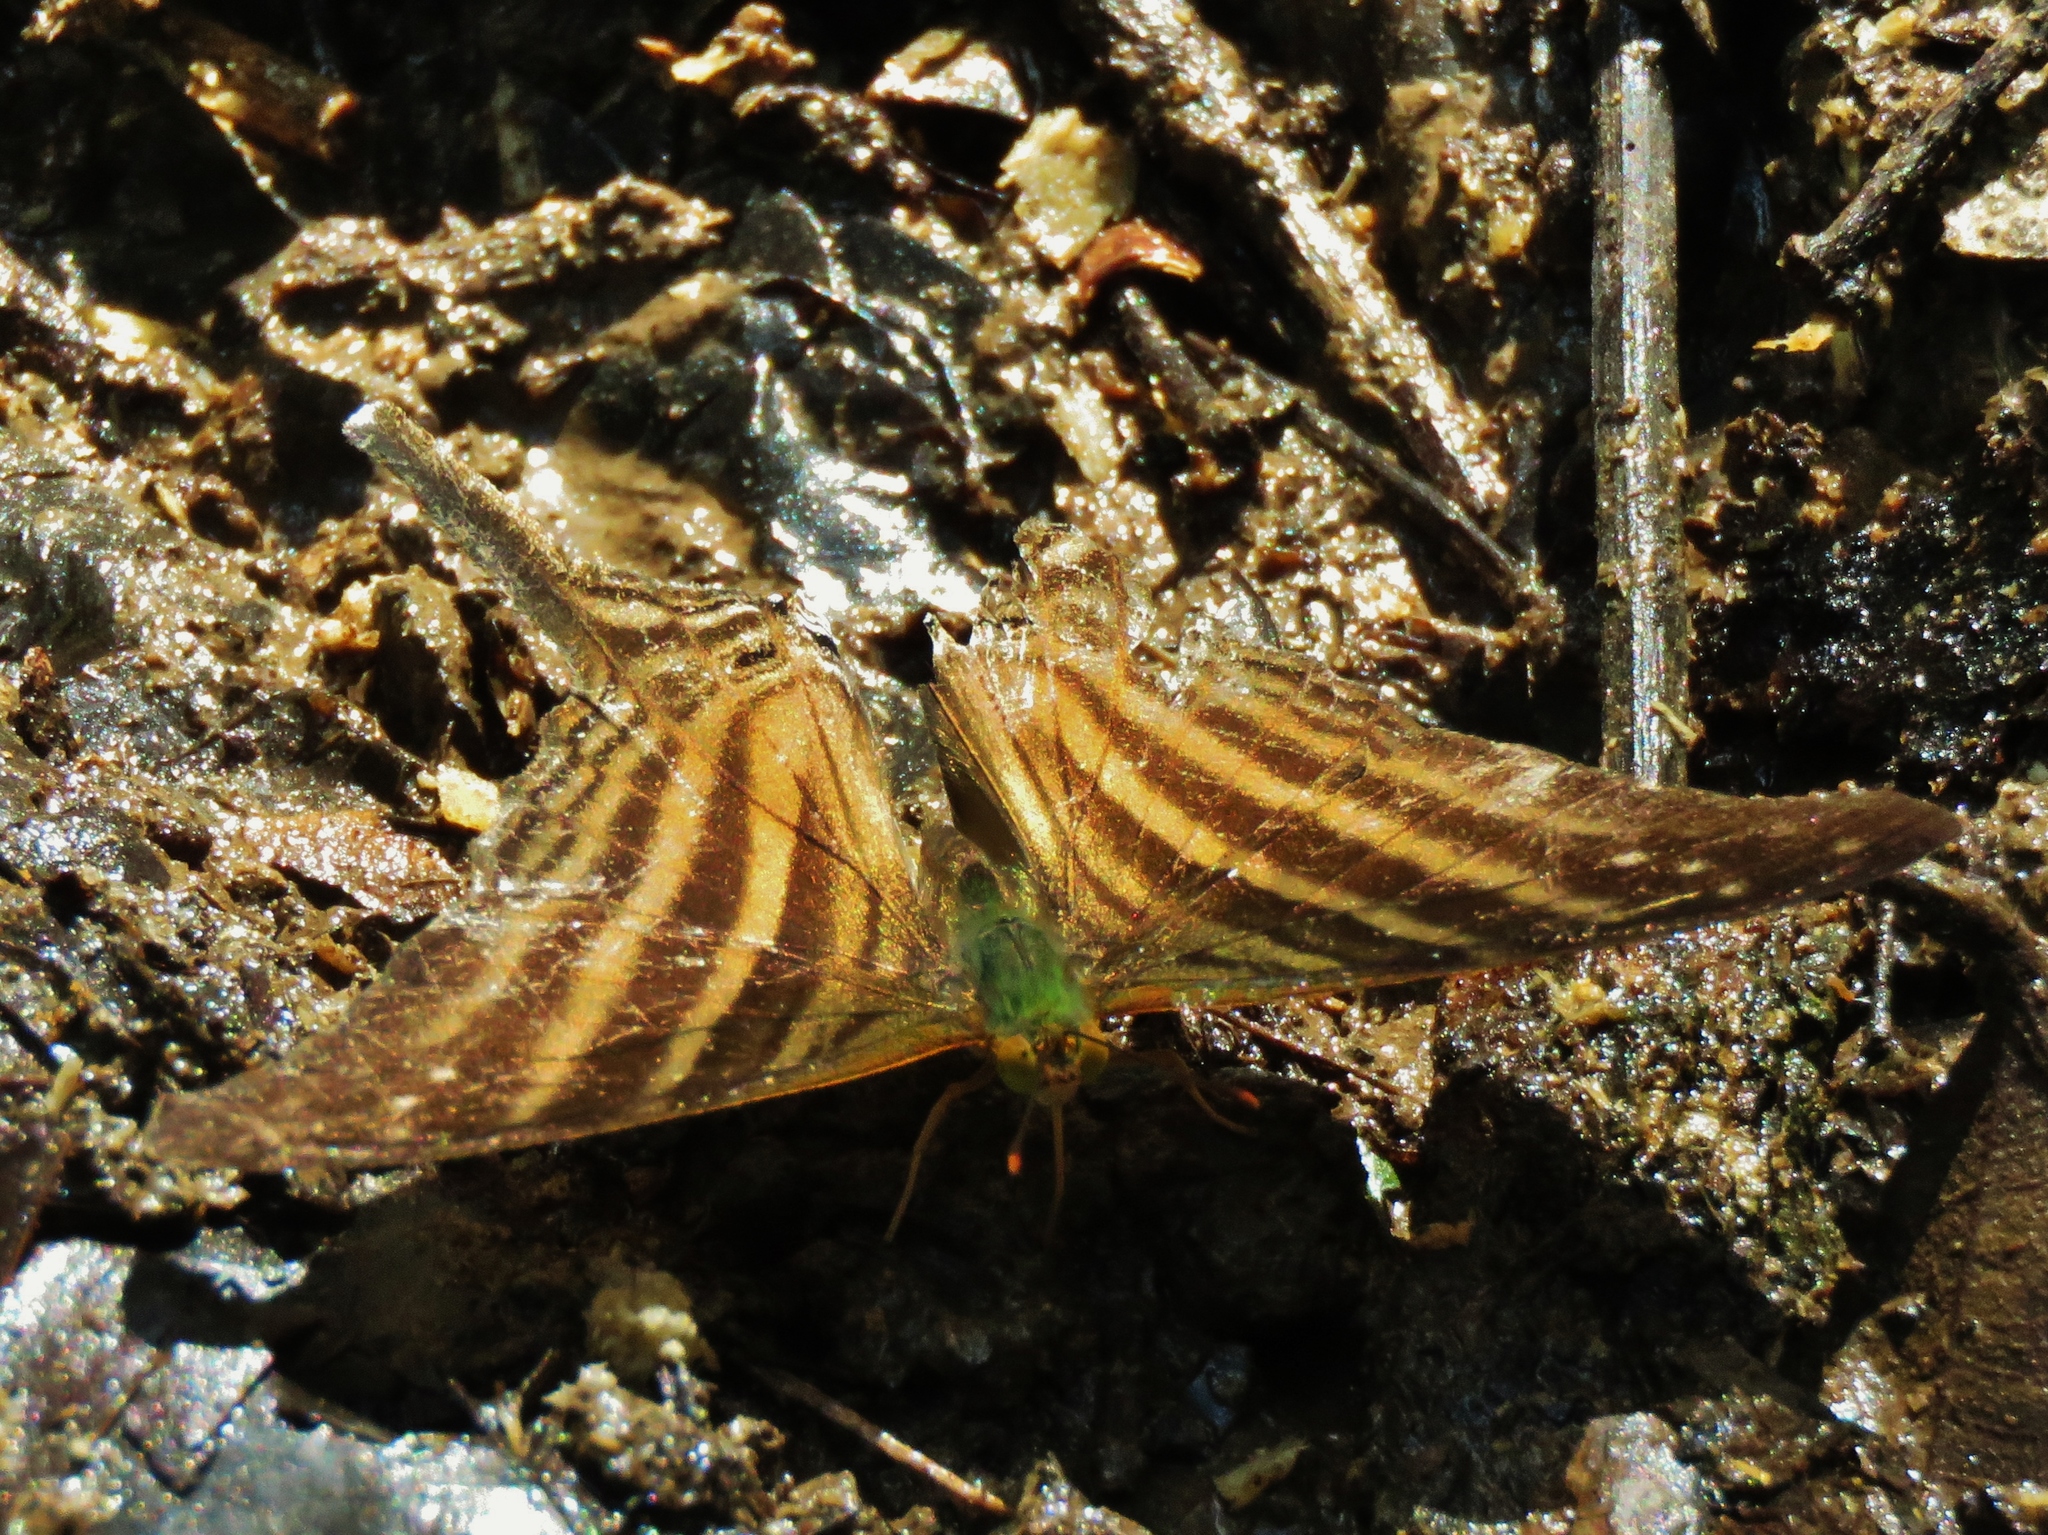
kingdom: Animalia
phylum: Arthropoda
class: Insecta
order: Lepidoptera
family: Nymphalidae
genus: Marpesia
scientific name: Marpesia chiron
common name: Many-banded daggerwing
